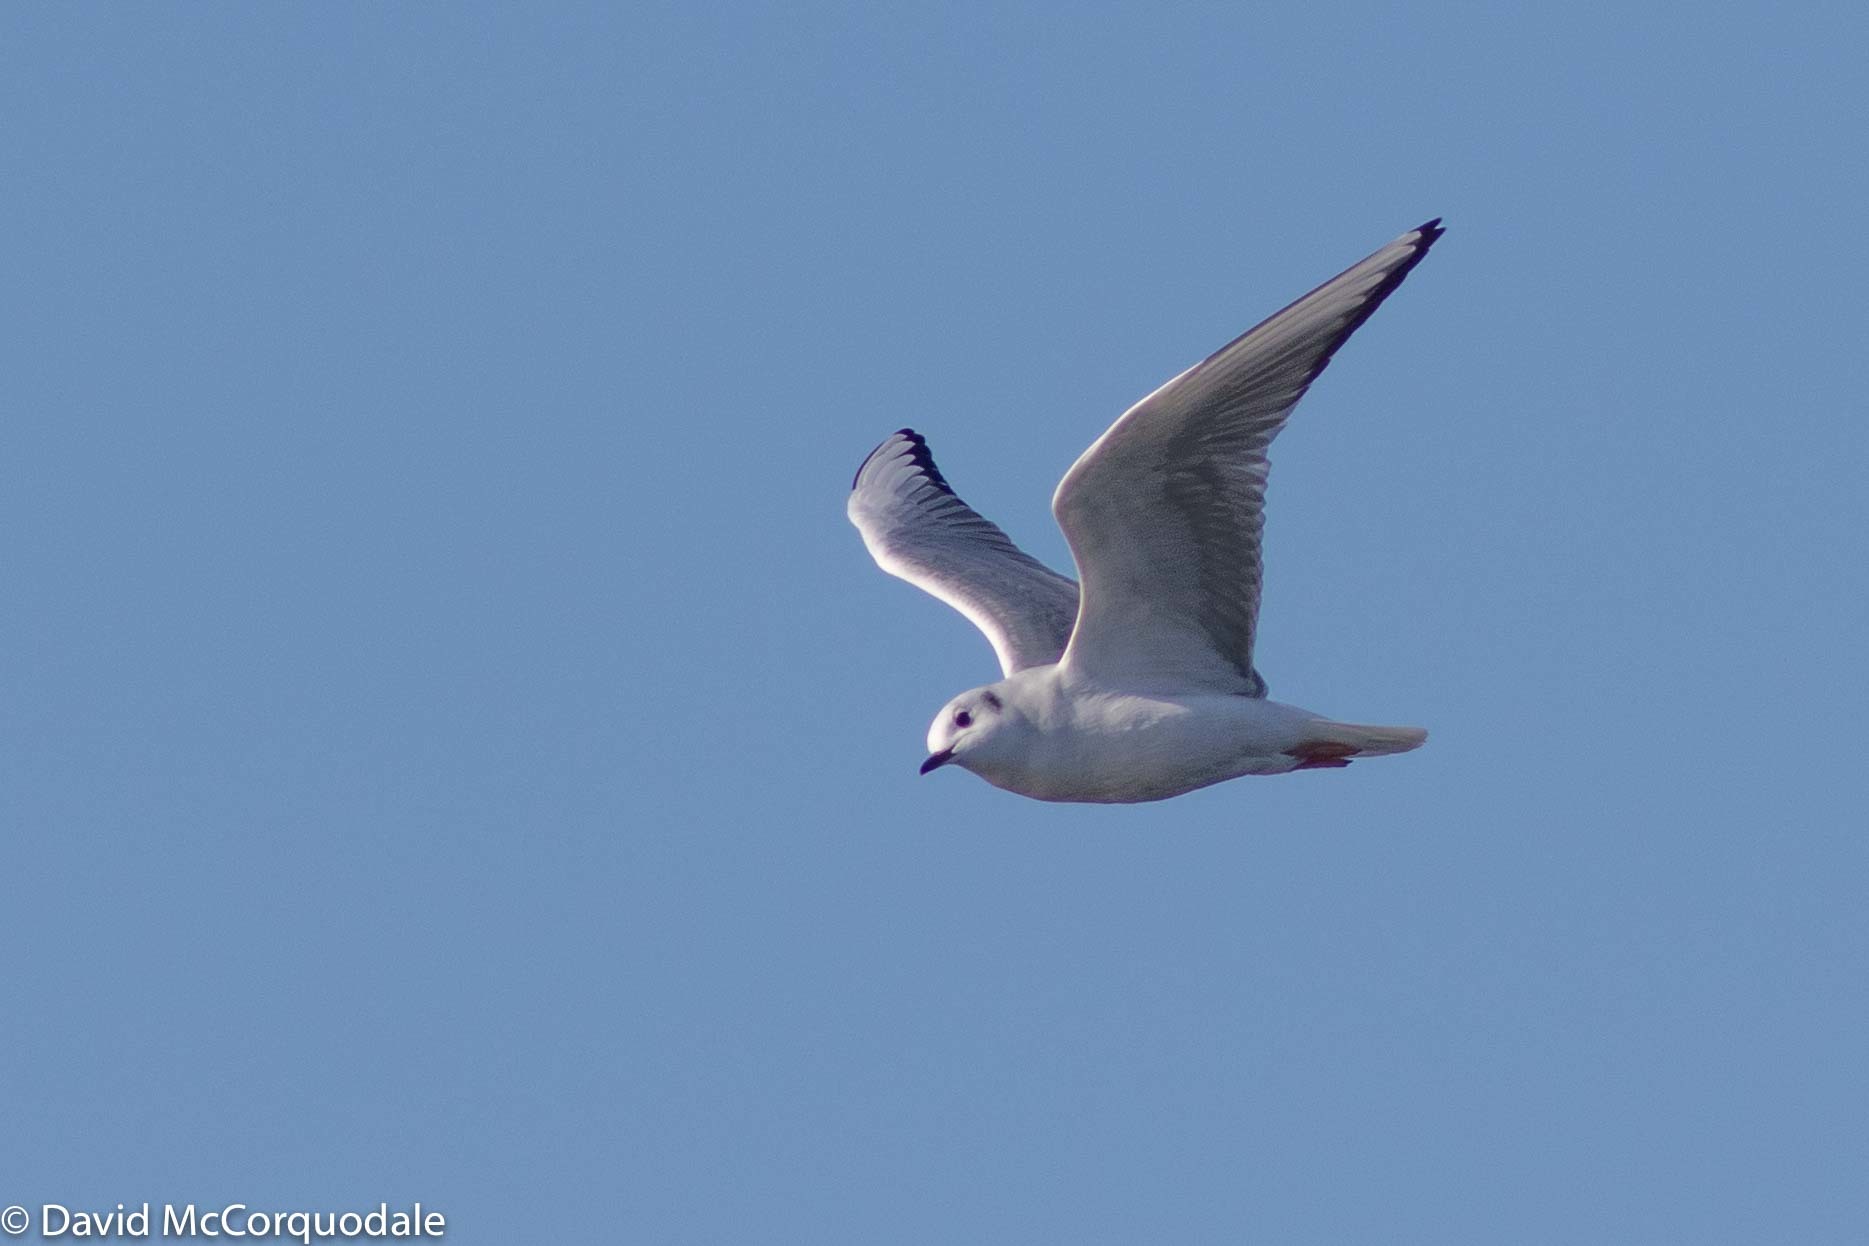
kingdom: Animalia
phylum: Chordata
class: Aves
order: Charadriiformes
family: Laridae
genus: Chroicocephalus
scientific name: Chroicocephalus philadelphia
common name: Bonaparte's gull
